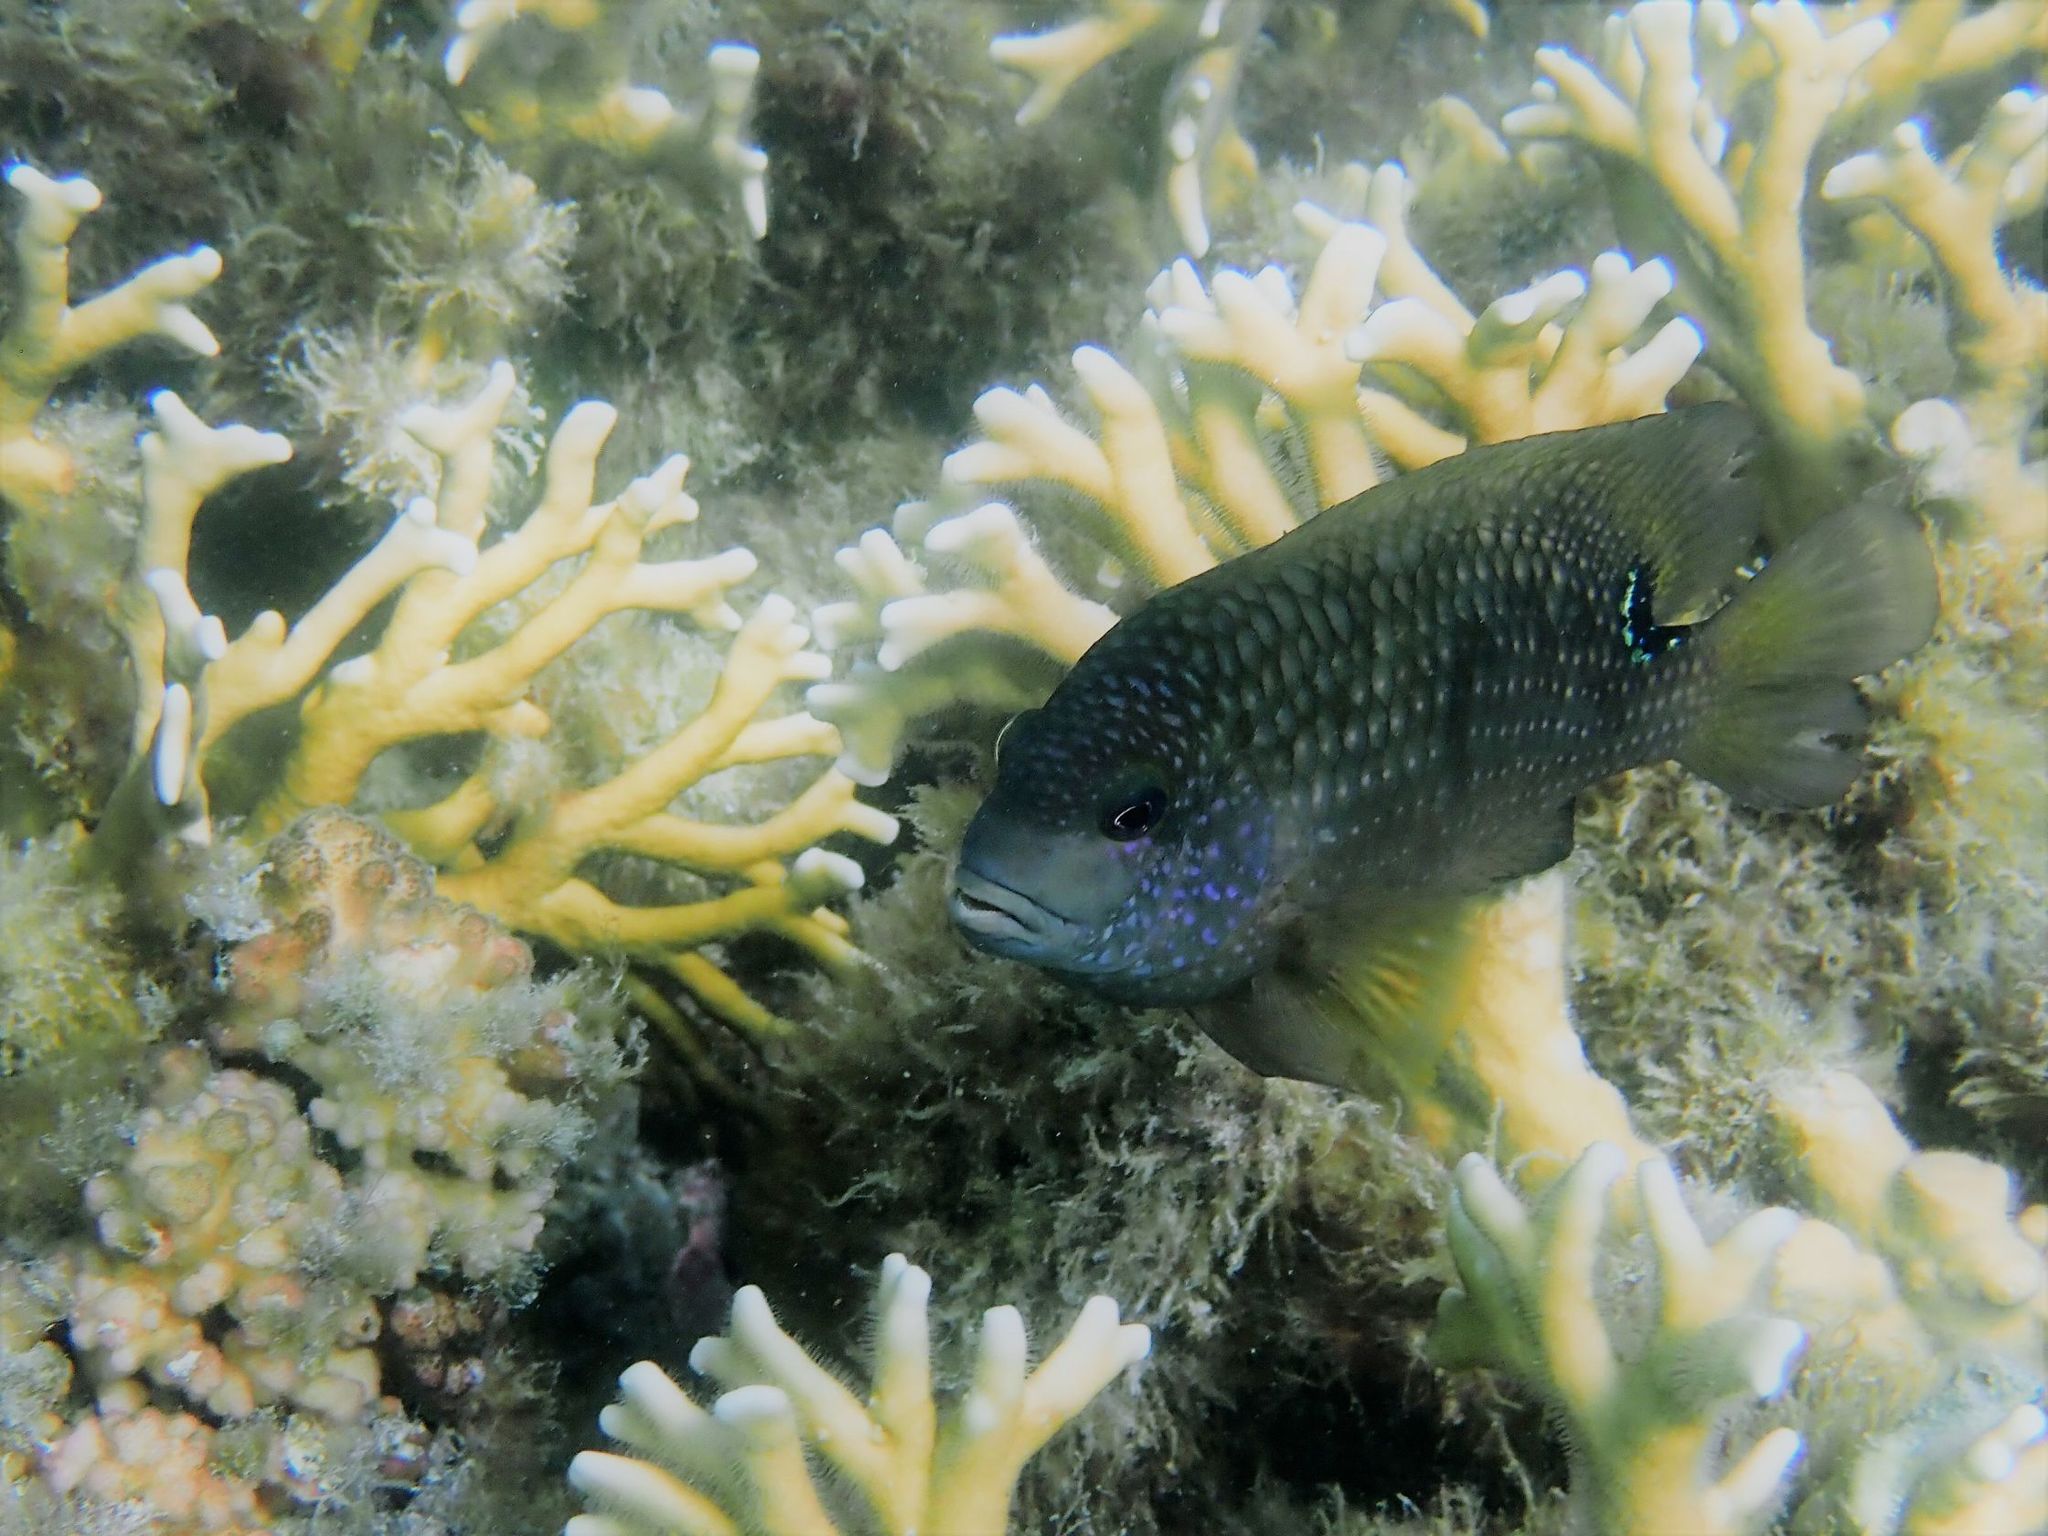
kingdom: Animalia
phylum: Chordata
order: Perciformes
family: Pomacentridae
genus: Stegastes
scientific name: Stegastes punctatus
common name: Blunt snout gregory
